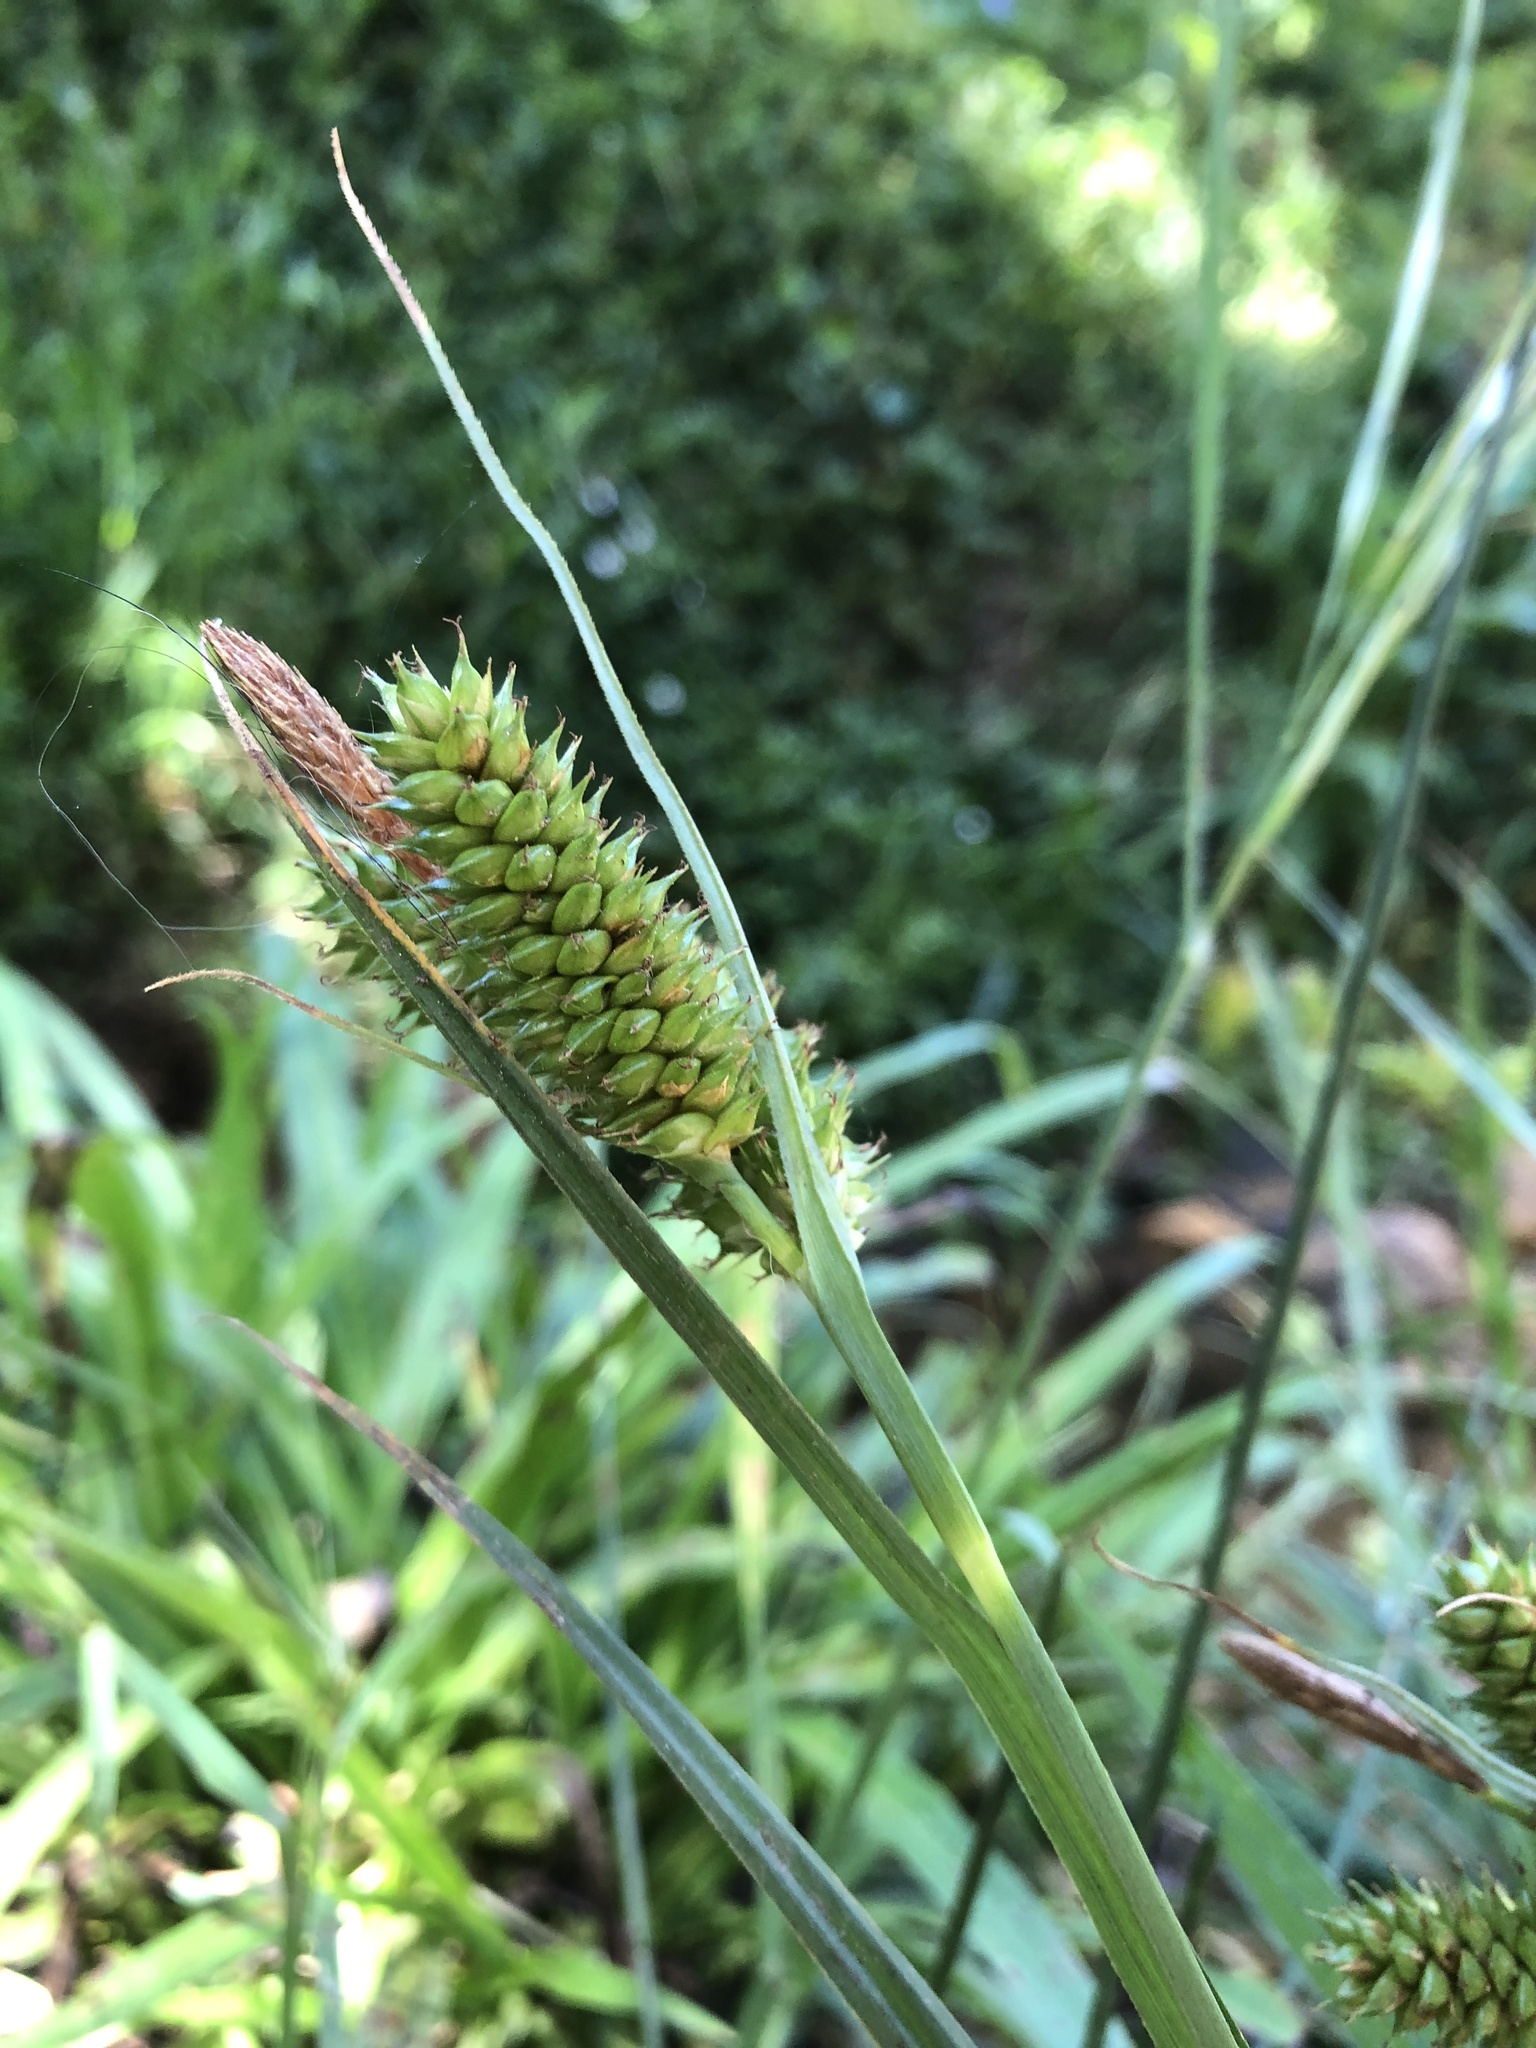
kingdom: Plantae
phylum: Tracheophyta
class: Liliopsida
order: Poales
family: Cyperaceae
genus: Carex
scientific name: Carex ecklonii
